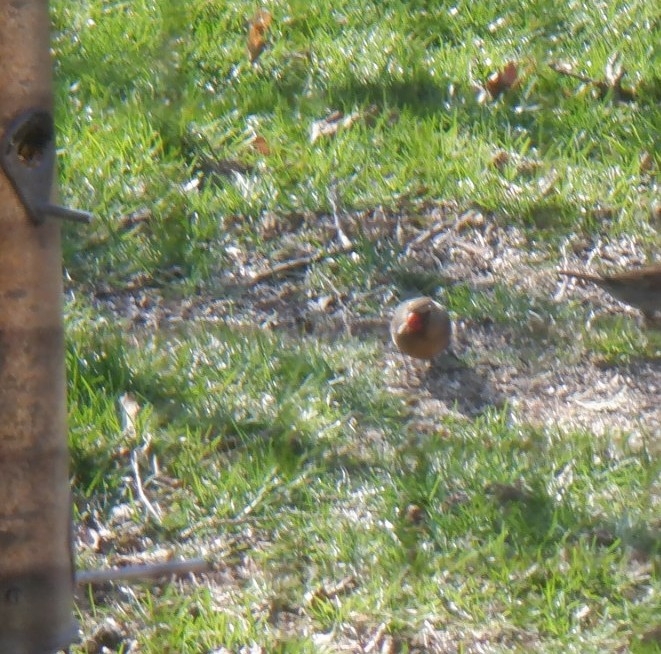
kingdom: Animalia
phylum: Chordata
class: Aves
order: Passeriformes
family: Cardinalidae
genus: Cardinalis
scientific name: Cardinalis cardinalis
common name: Northern cardinal
